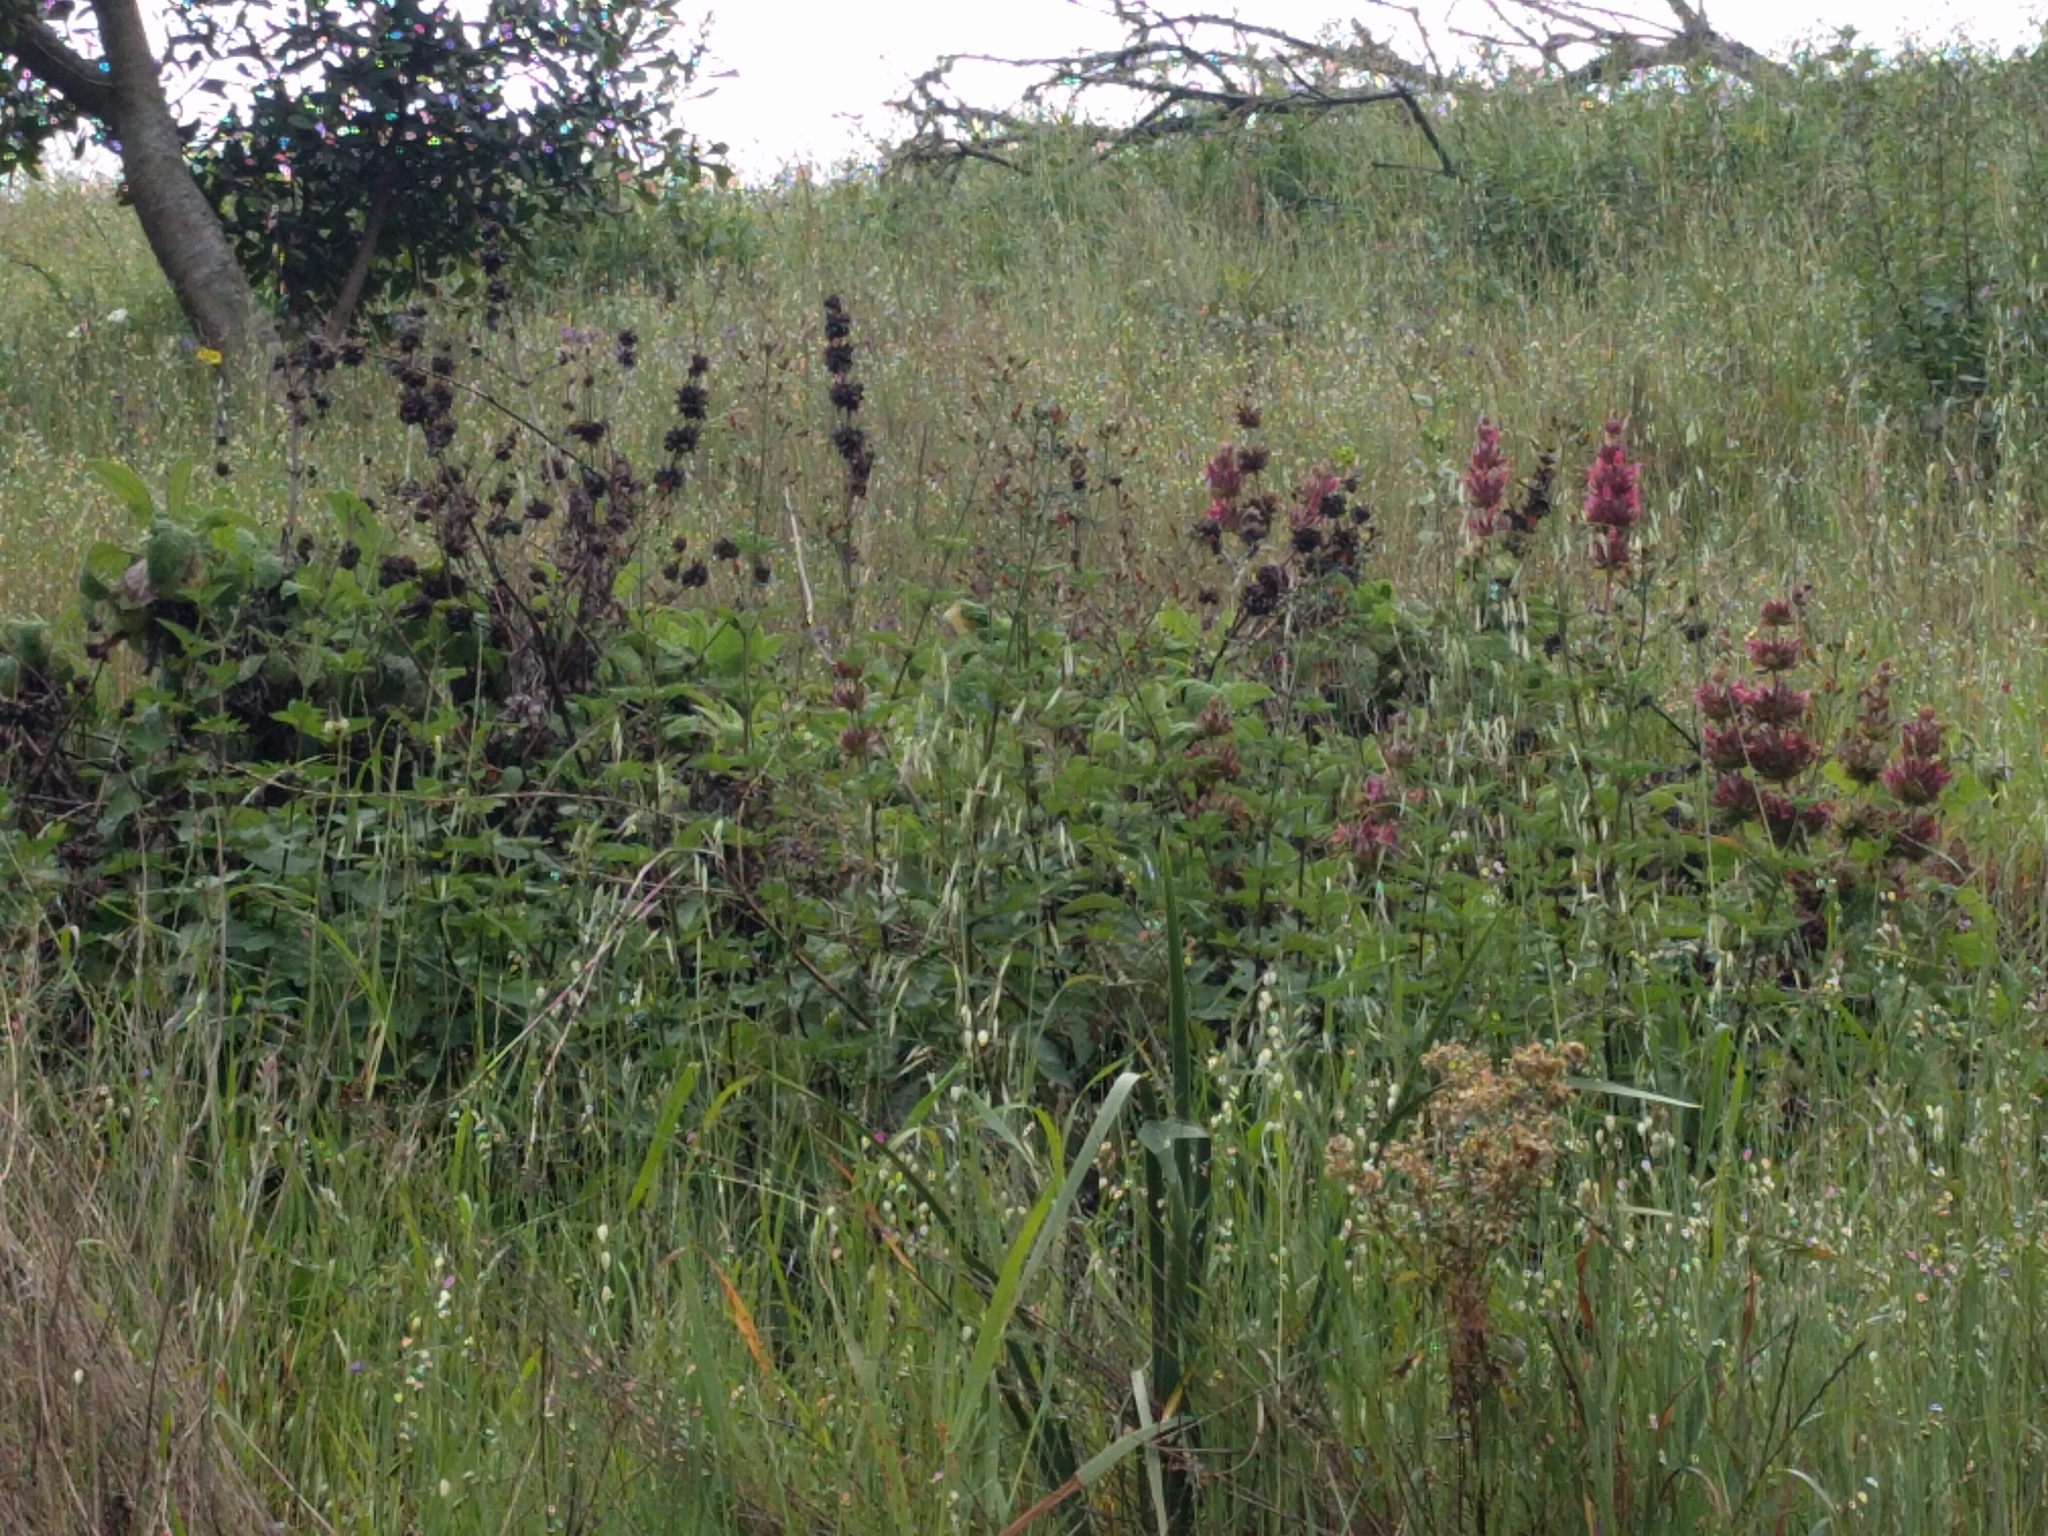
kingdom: Plantae
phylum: Tracheophyta
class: Magnoliopsida
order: Lamiales
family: Lamiaceae
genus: Salvia
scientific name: Salvia spathacea
